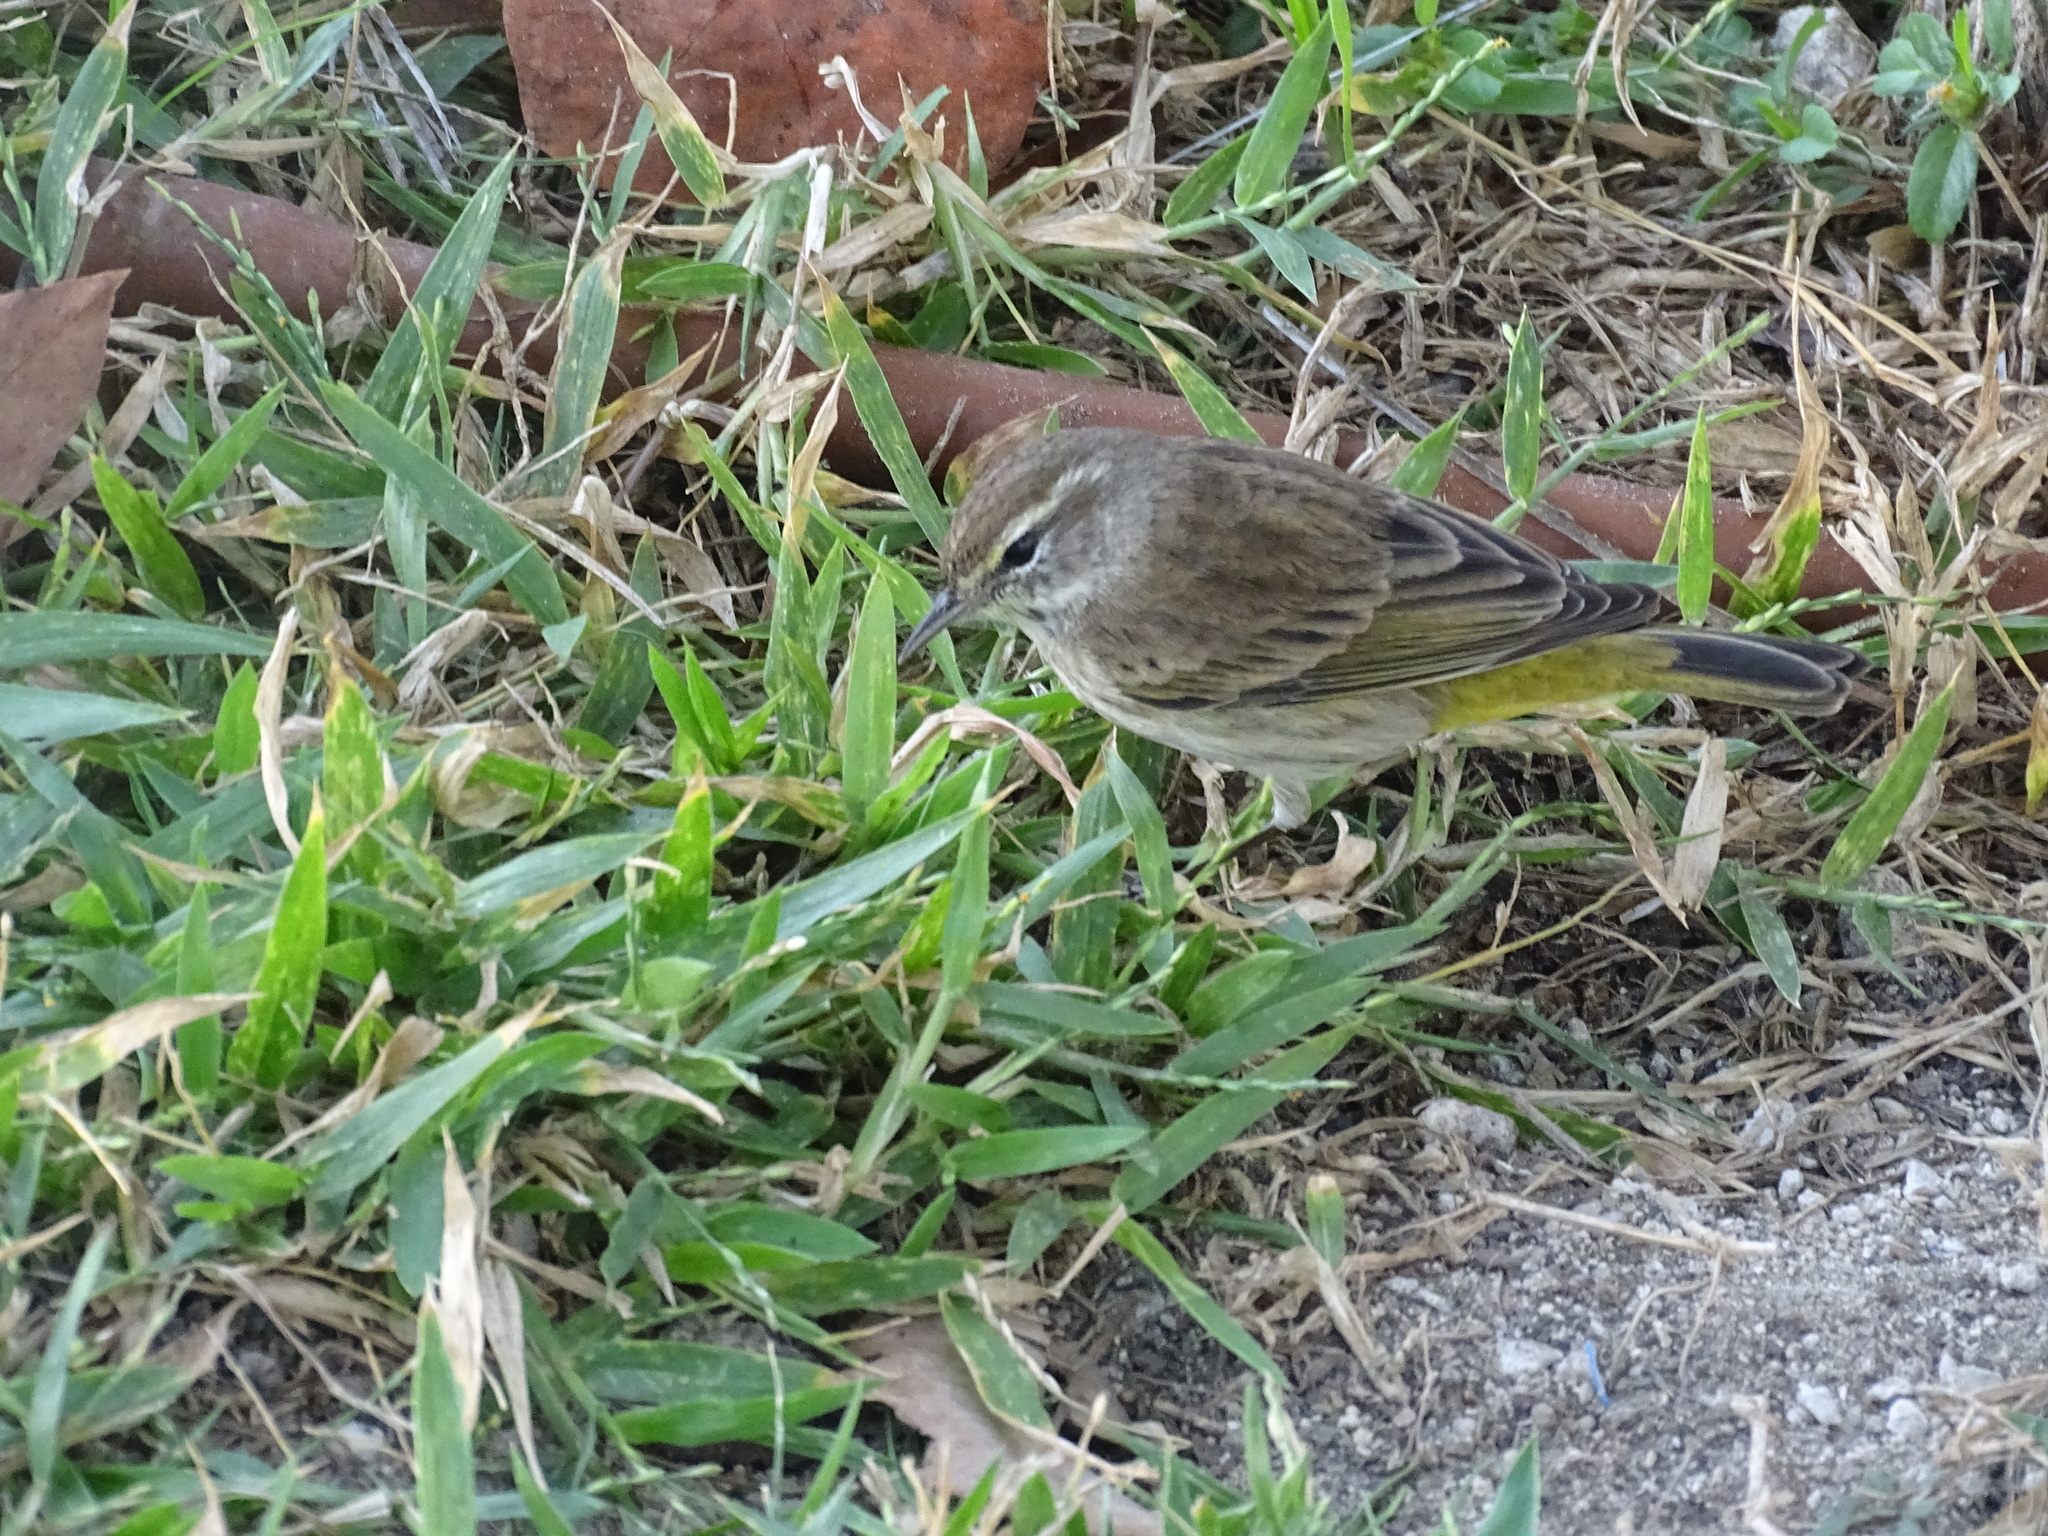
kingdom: Animalia
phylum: Chordata
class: Aves
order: Passeriformes
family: Parulidae
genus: Setophaga
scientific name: Setophaga palmarum
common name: Palm warbler
